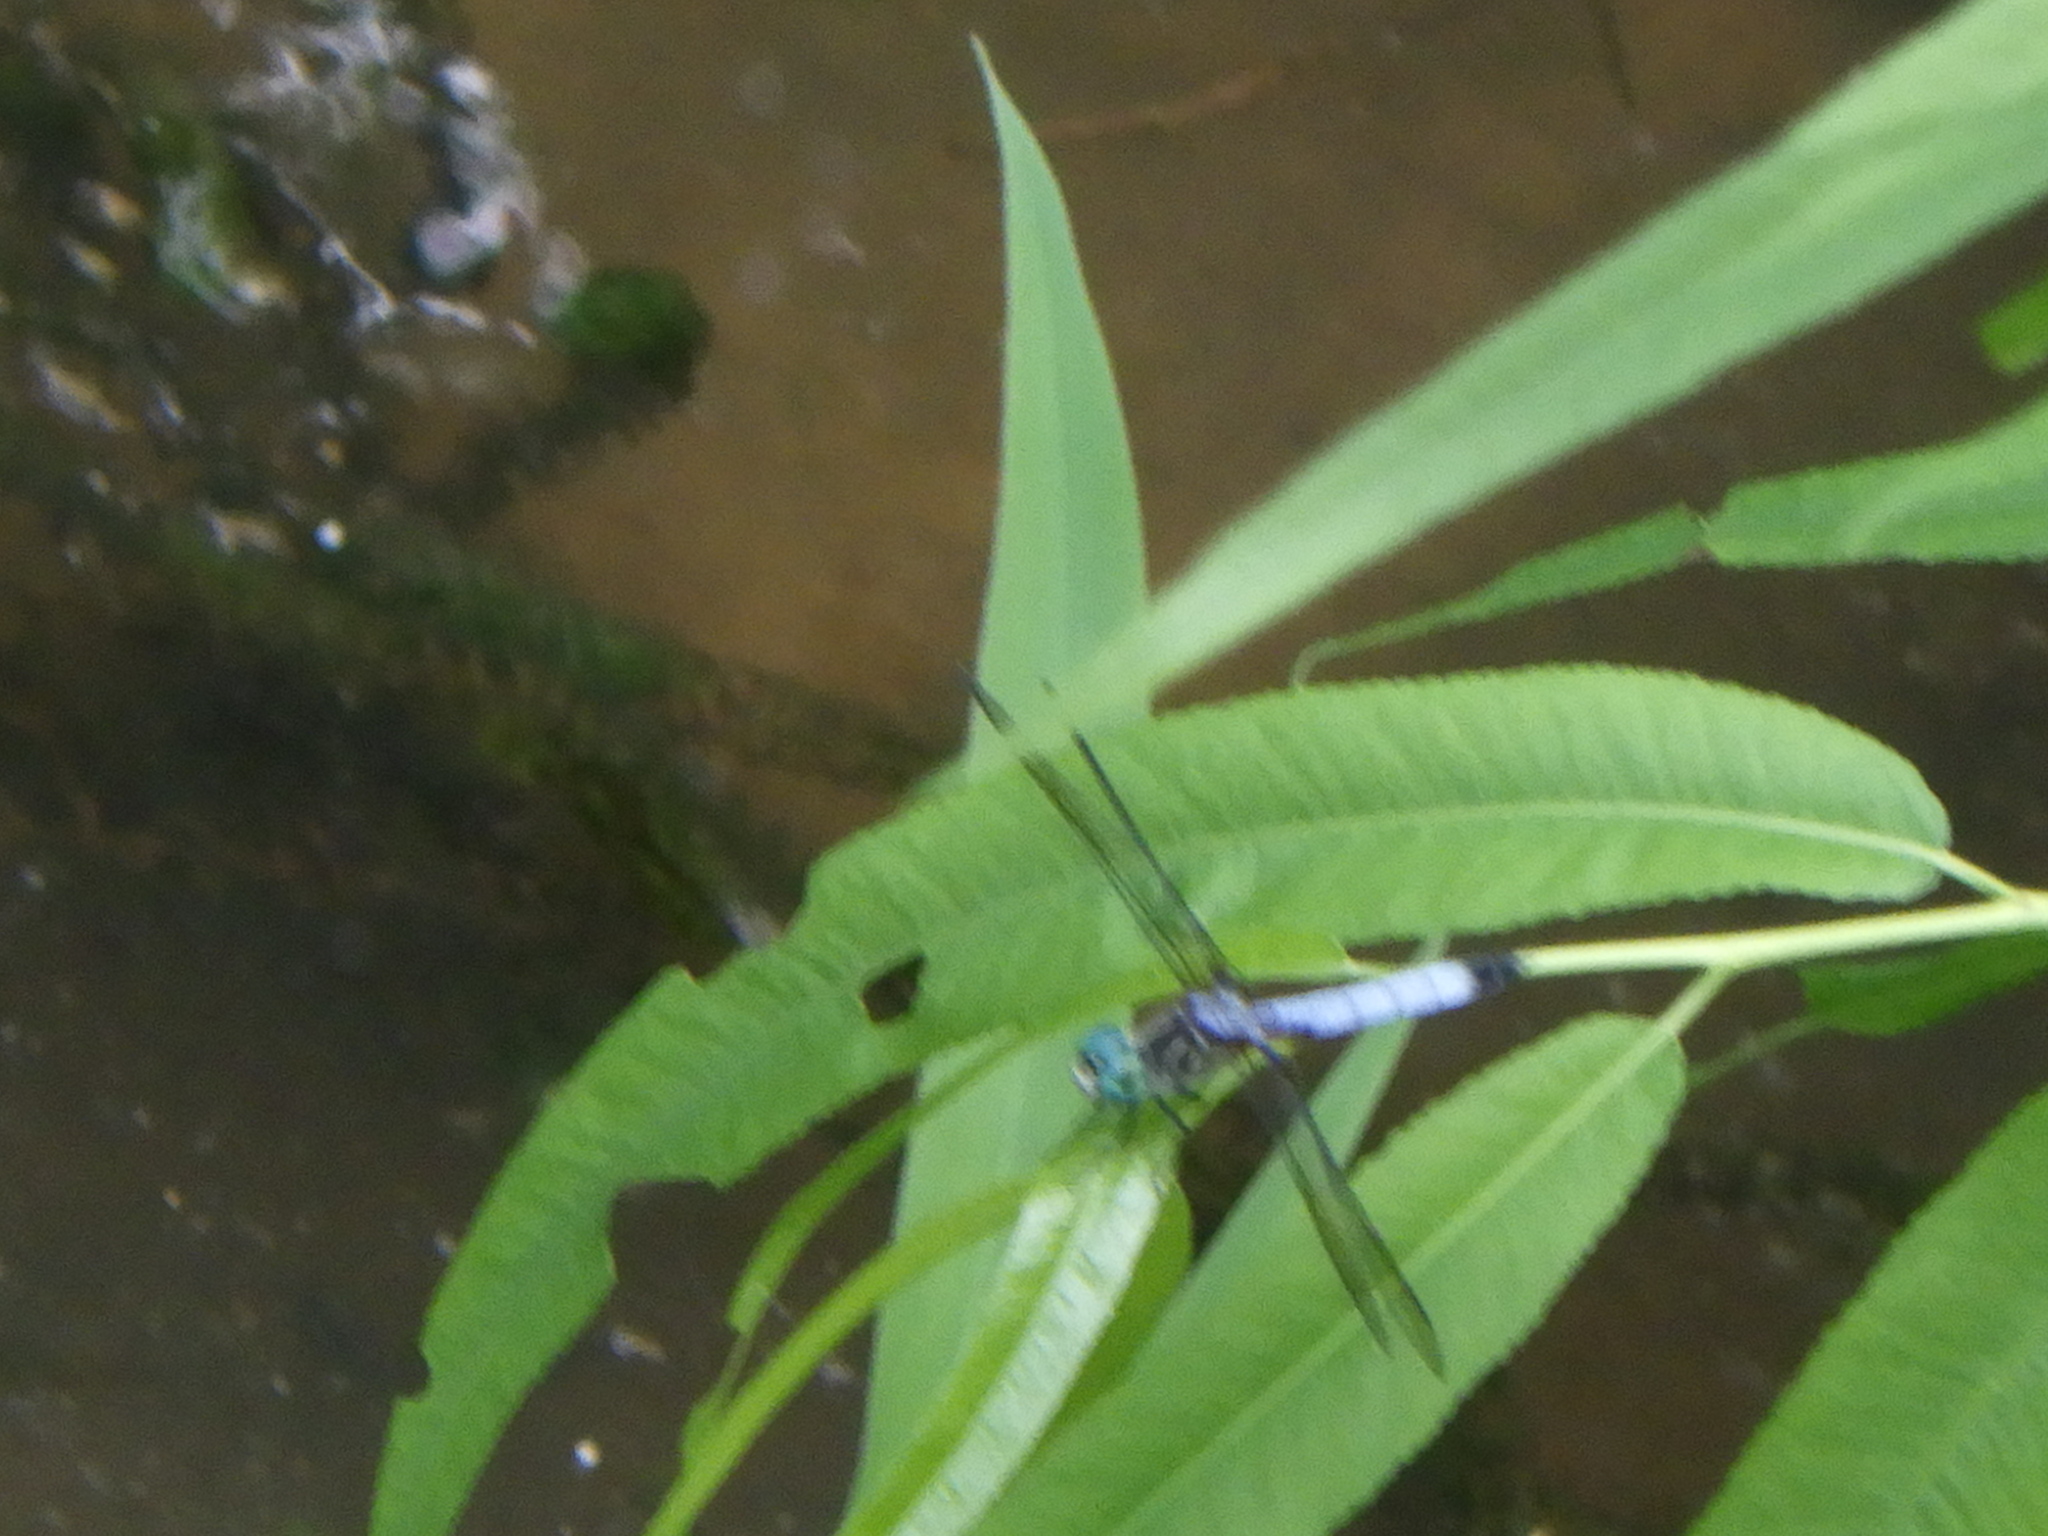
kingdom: Animalia
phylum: Arthropoda
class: Insecta
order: Odonata
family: Libellulidae
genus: Pachydiplax
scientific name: Pachydiplax longipennis
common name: Blue dasher
